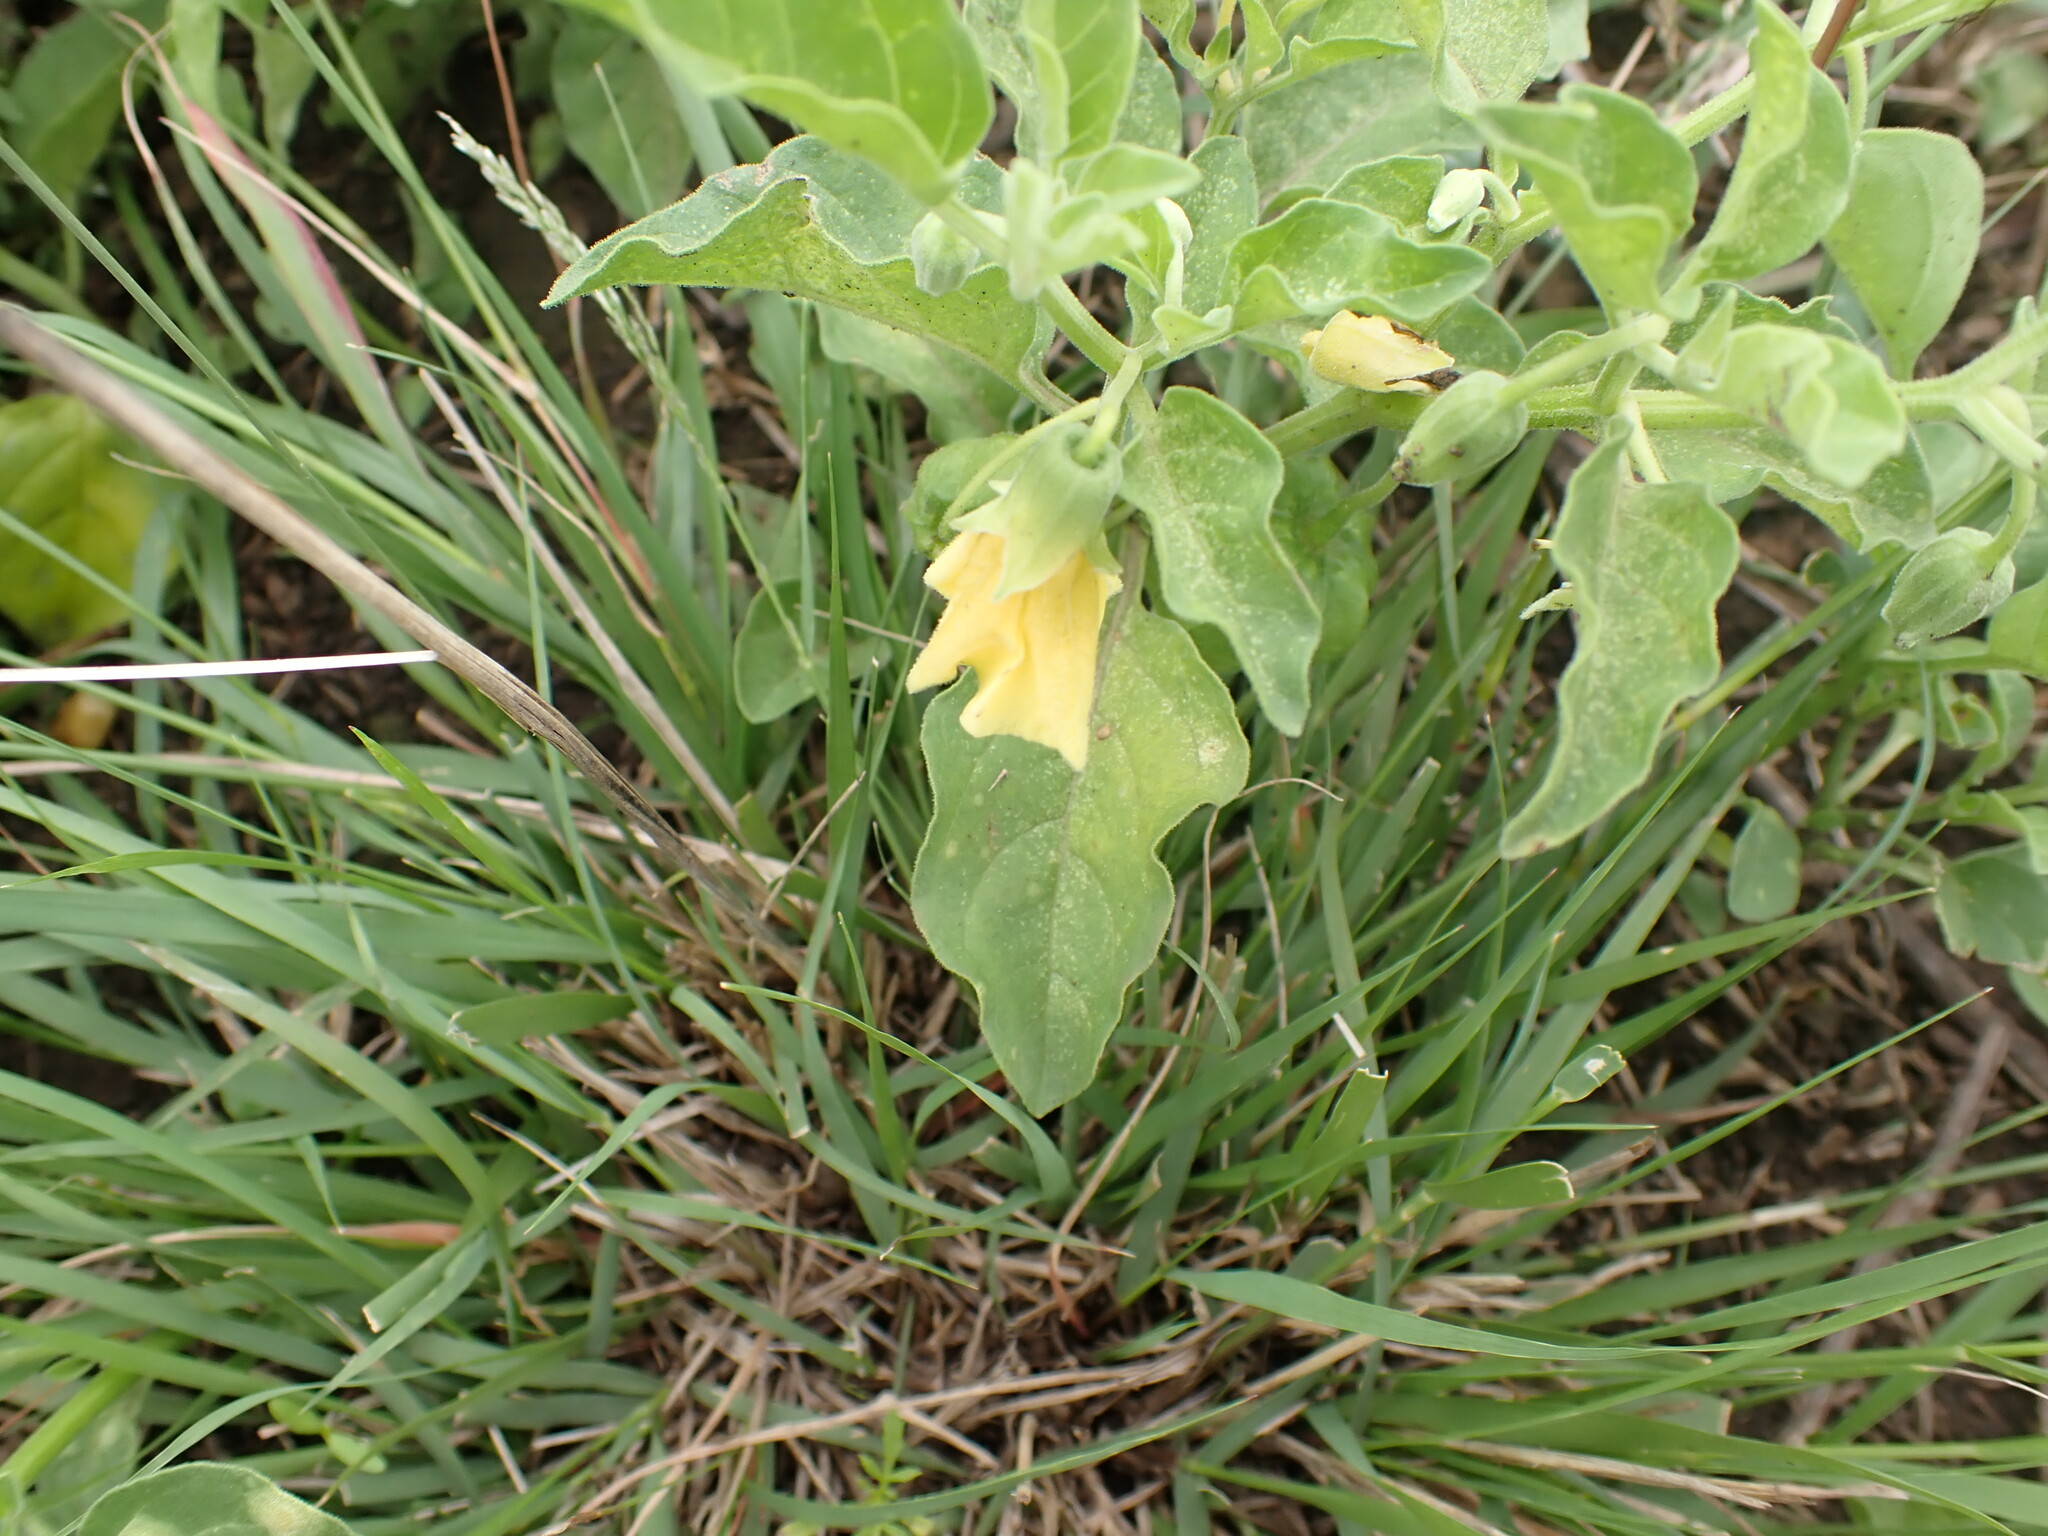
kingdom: Plantae
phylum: Tracheophyta
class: Magnoliopsida
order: Solanales
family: Solanaceae
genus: Physalis
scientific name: Physalis viscosa
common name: Stellate ground-cherry
